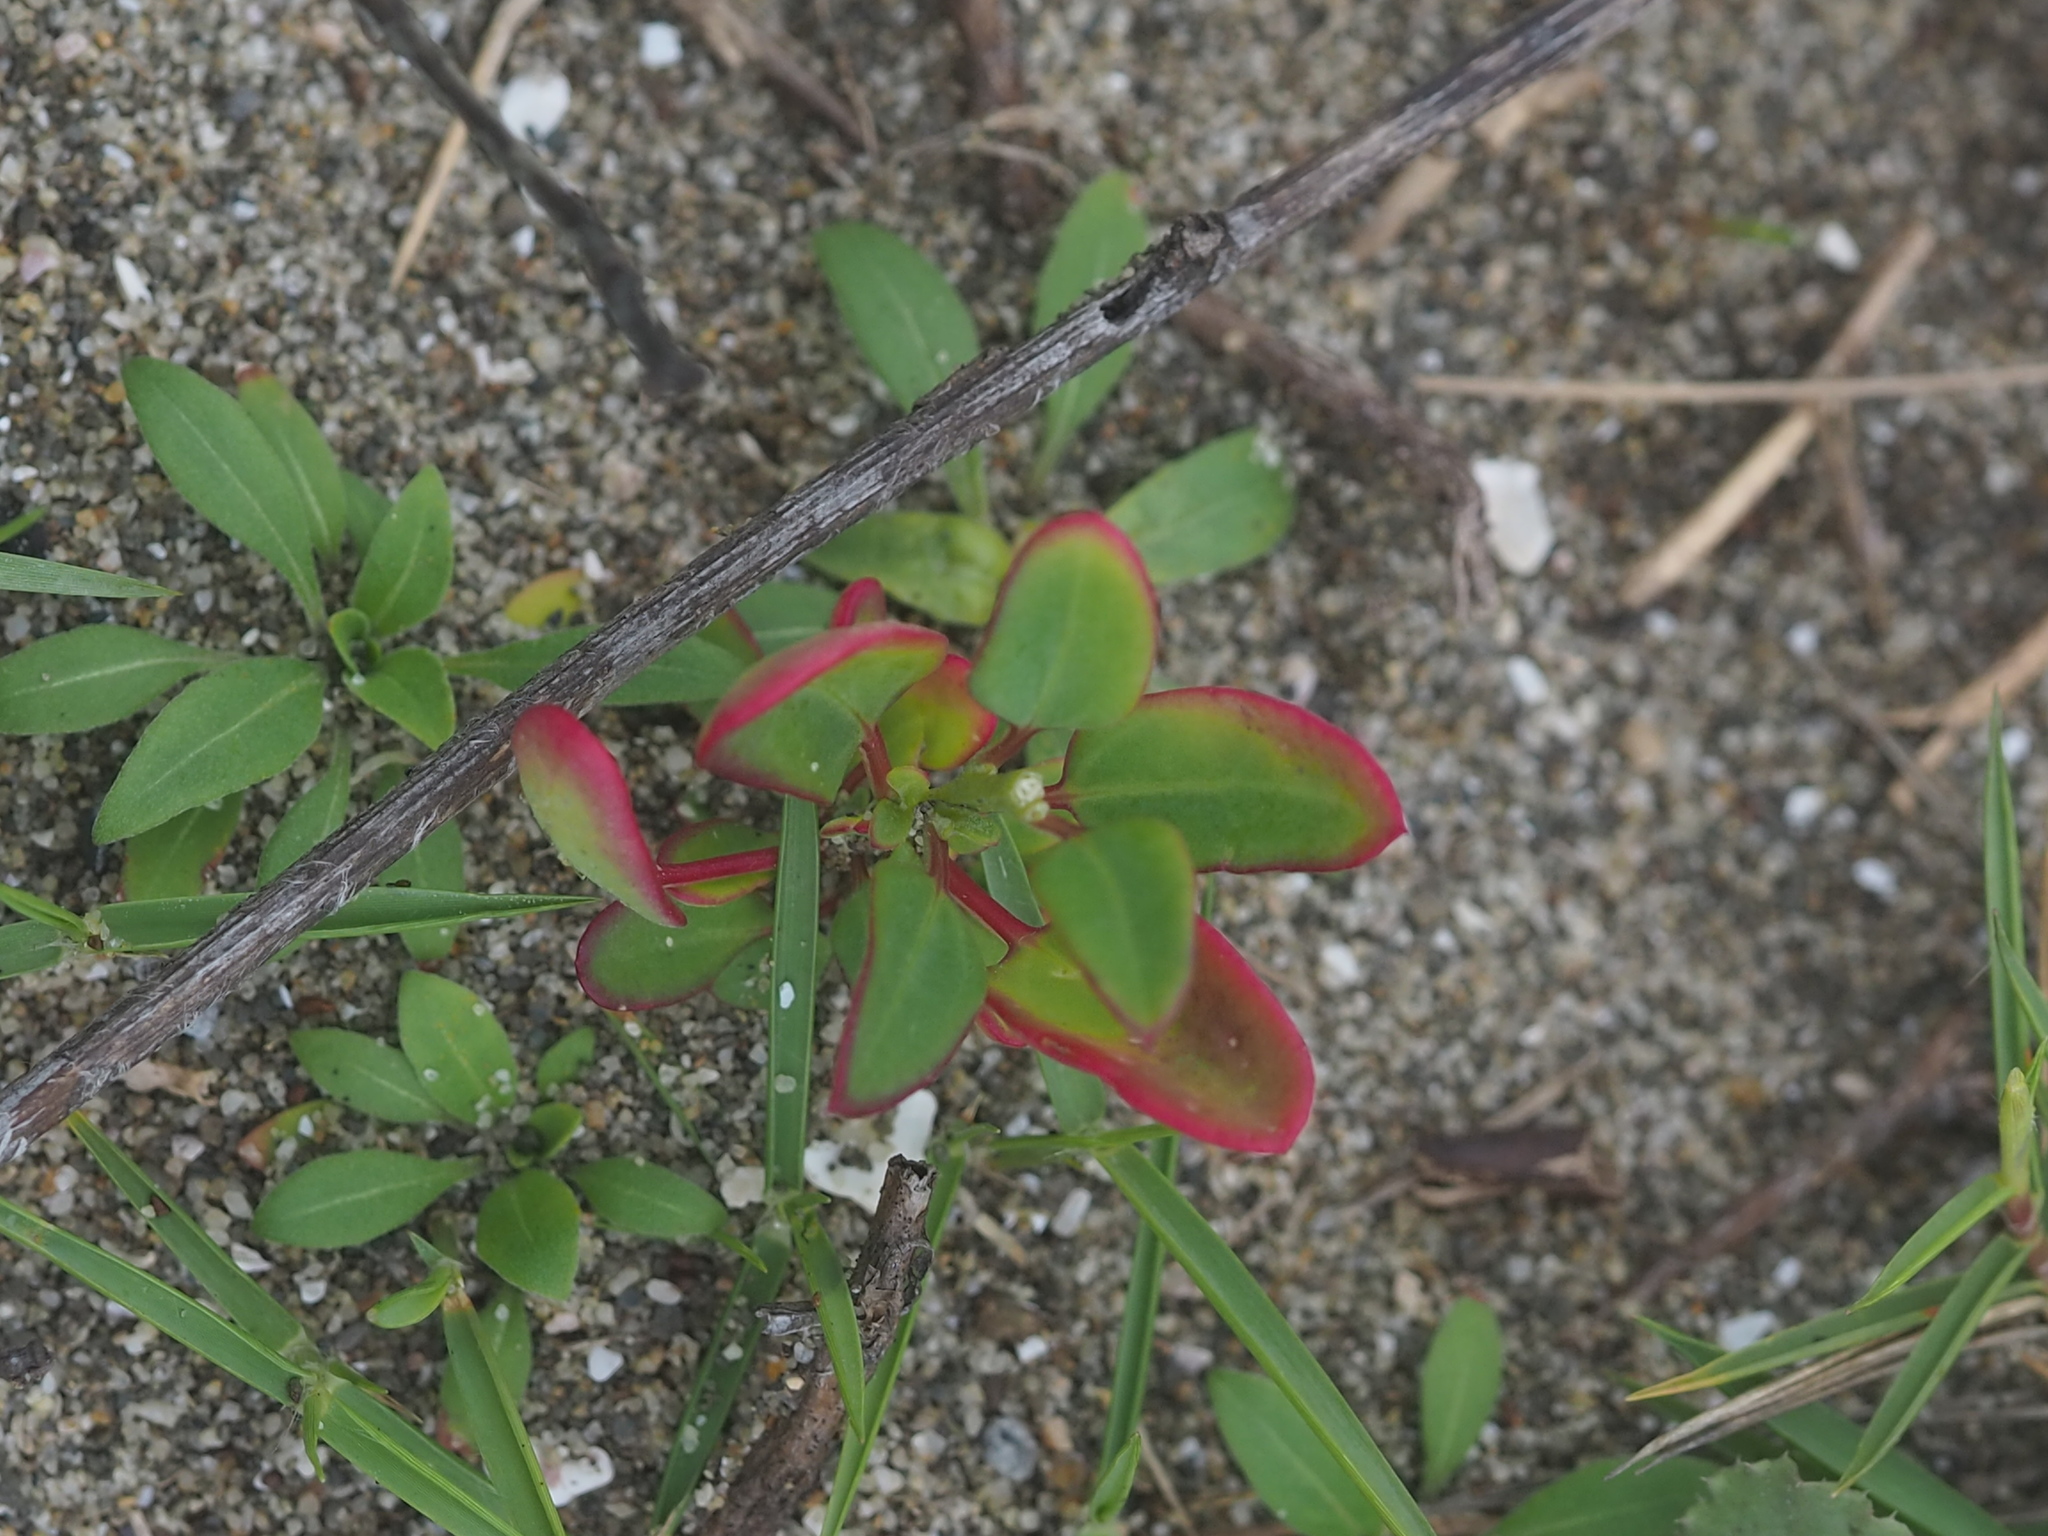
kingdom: Plantae
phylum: Tracheophyta
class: Magnoliopsida
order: Caryophyllales
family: Amaranthaceae
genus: Chenopodium
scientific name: Chenopodium acuminatum
